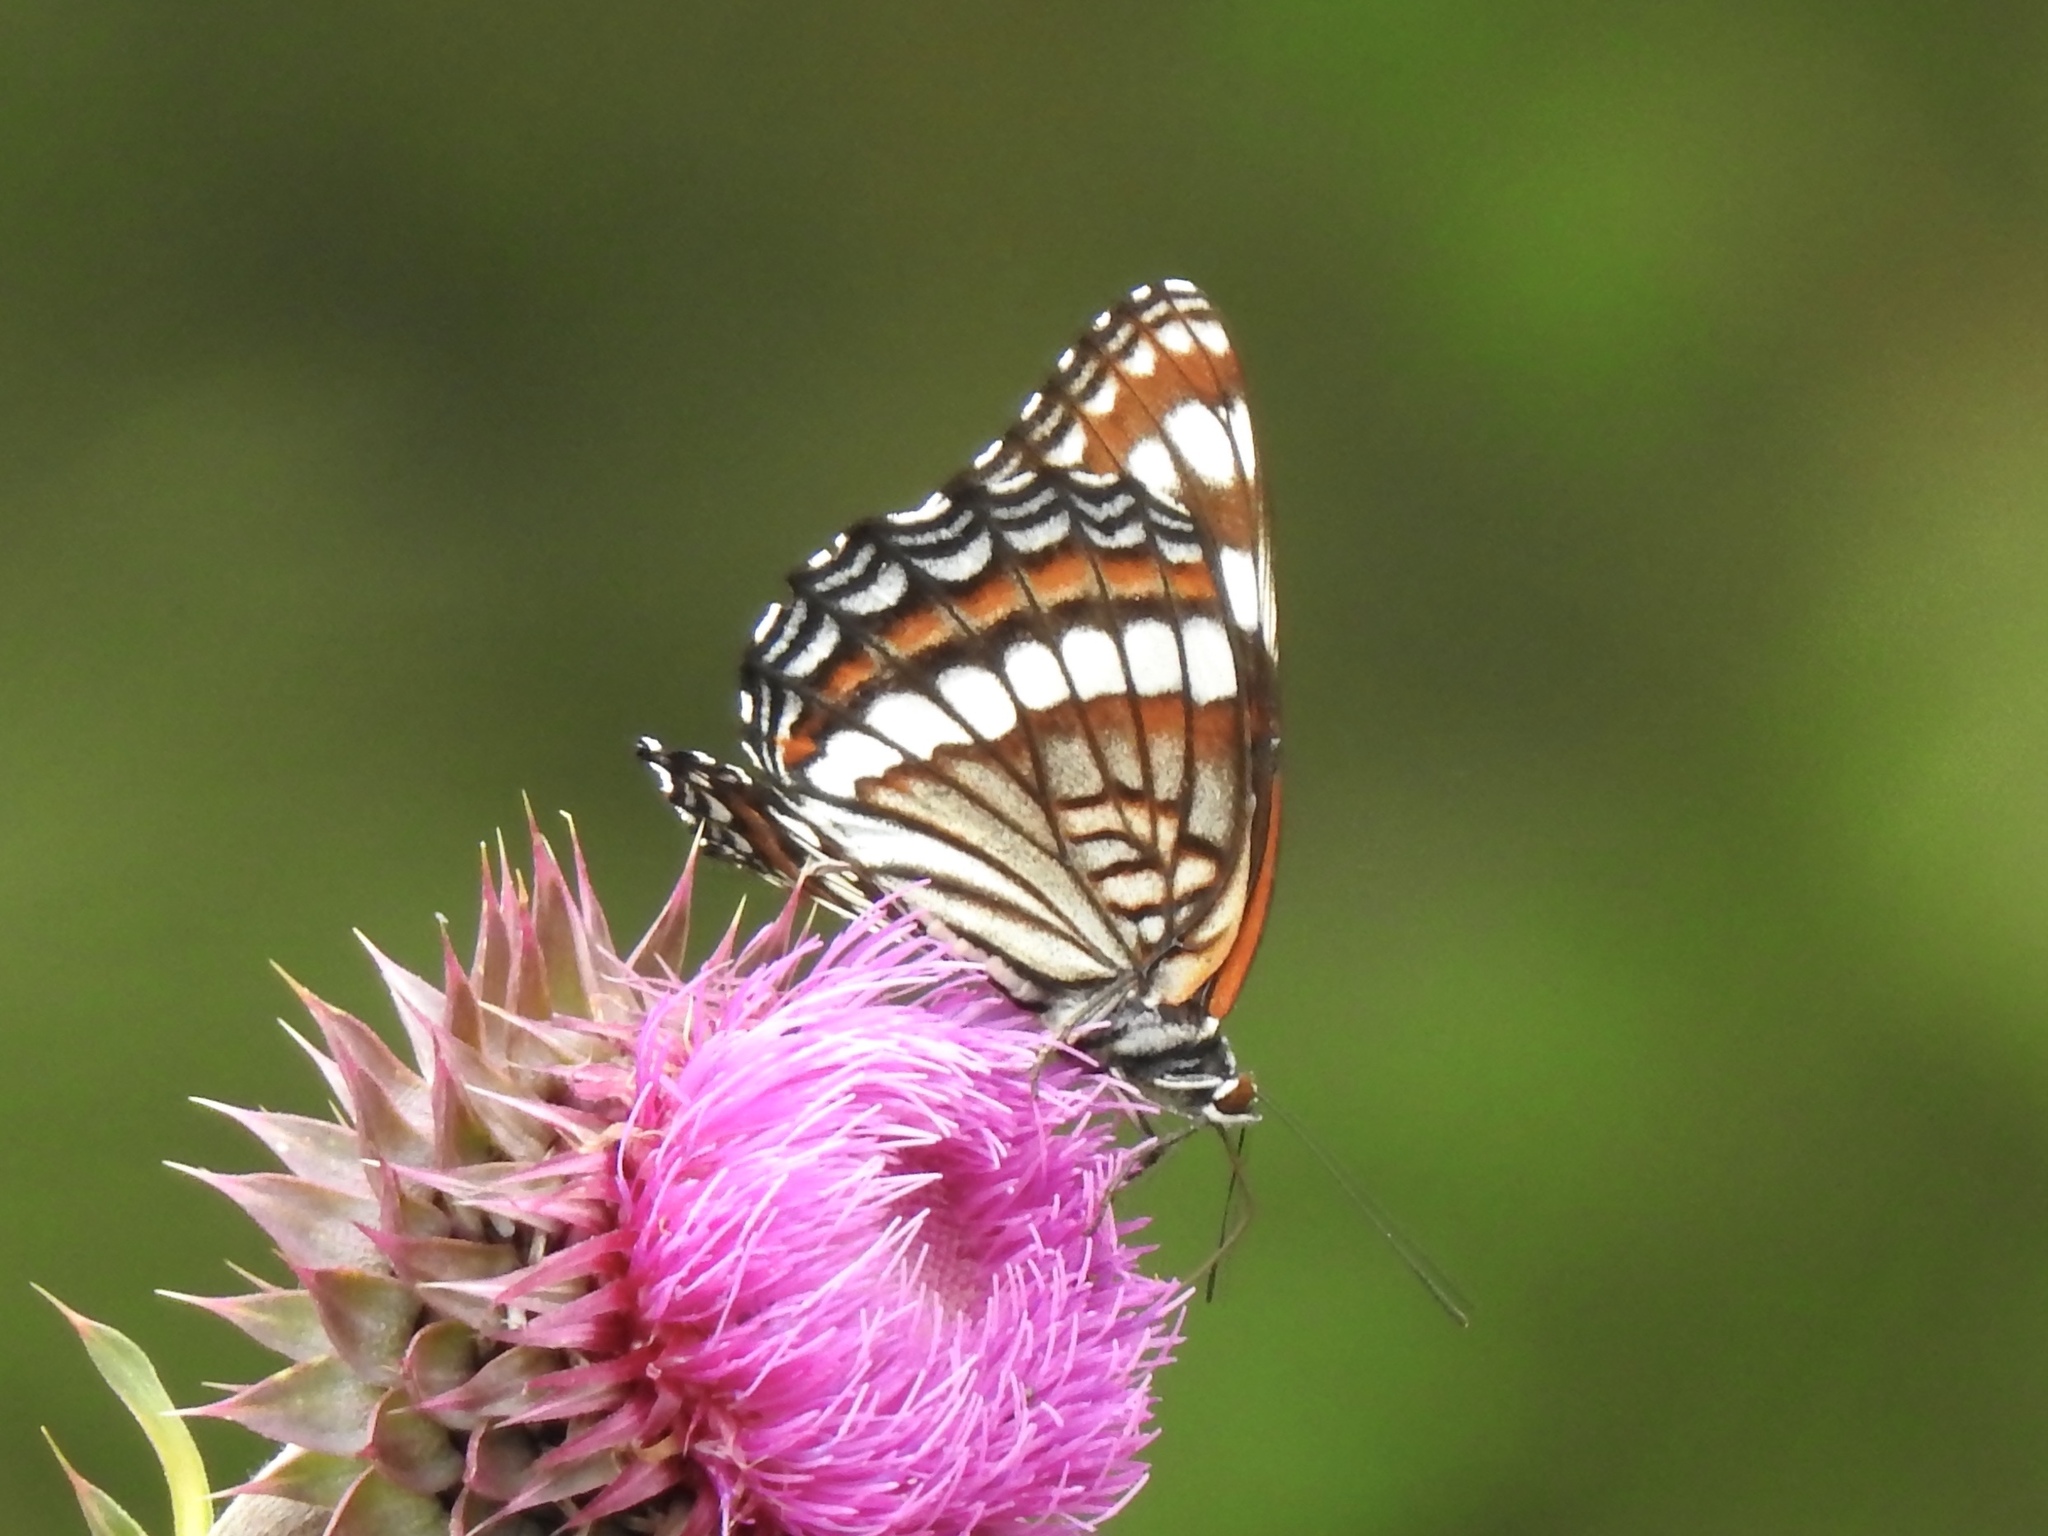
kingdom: Animalia
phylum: Arthropoda
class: Insecta
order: Lepidoptera
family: Nymphalidae
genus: Limenitis
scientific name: Limenitis weidemeyerii
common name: Weidemeyer's admiral
